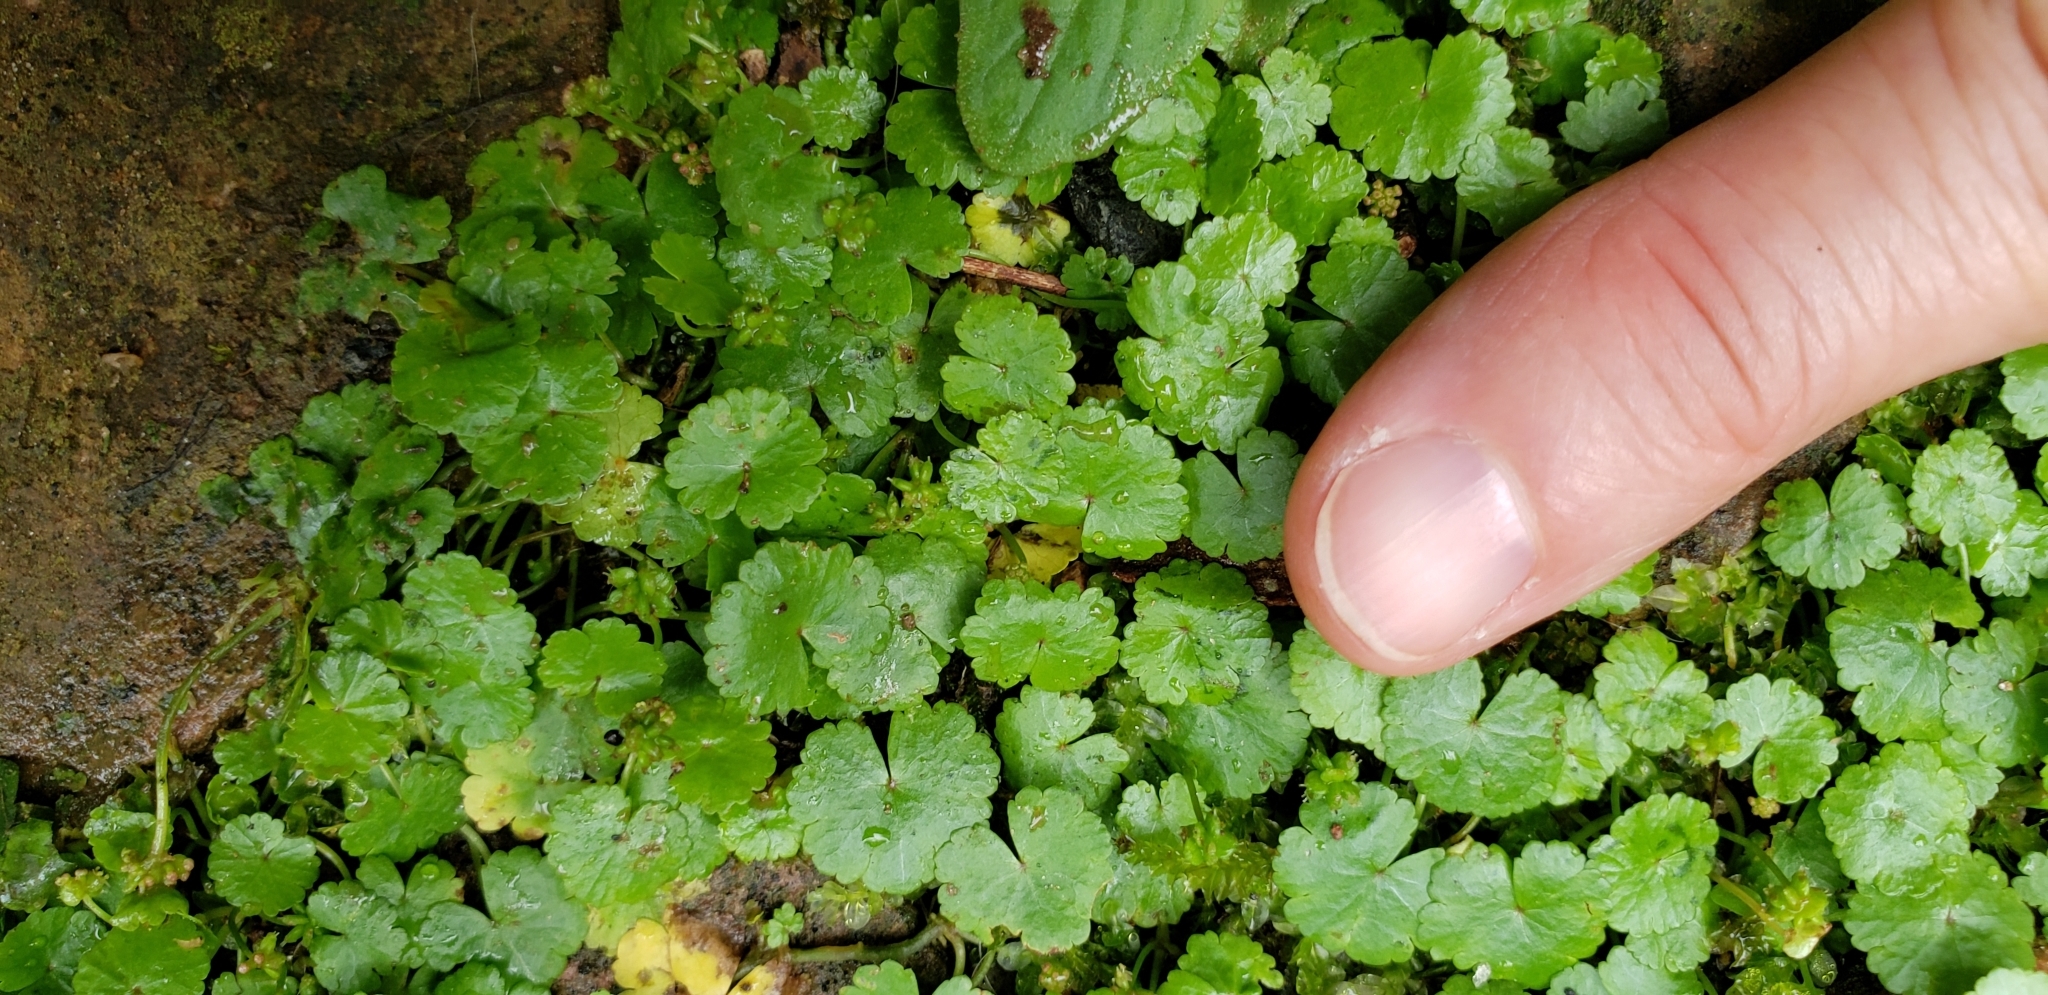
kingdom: Plantae
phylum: Tracheophyta
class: Magnoliopsida
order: Apiales
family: Araliaceae
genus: Hydrocotyle
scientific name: Hydrocotyle sibthorpioides
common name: Lawn marshpennywort
